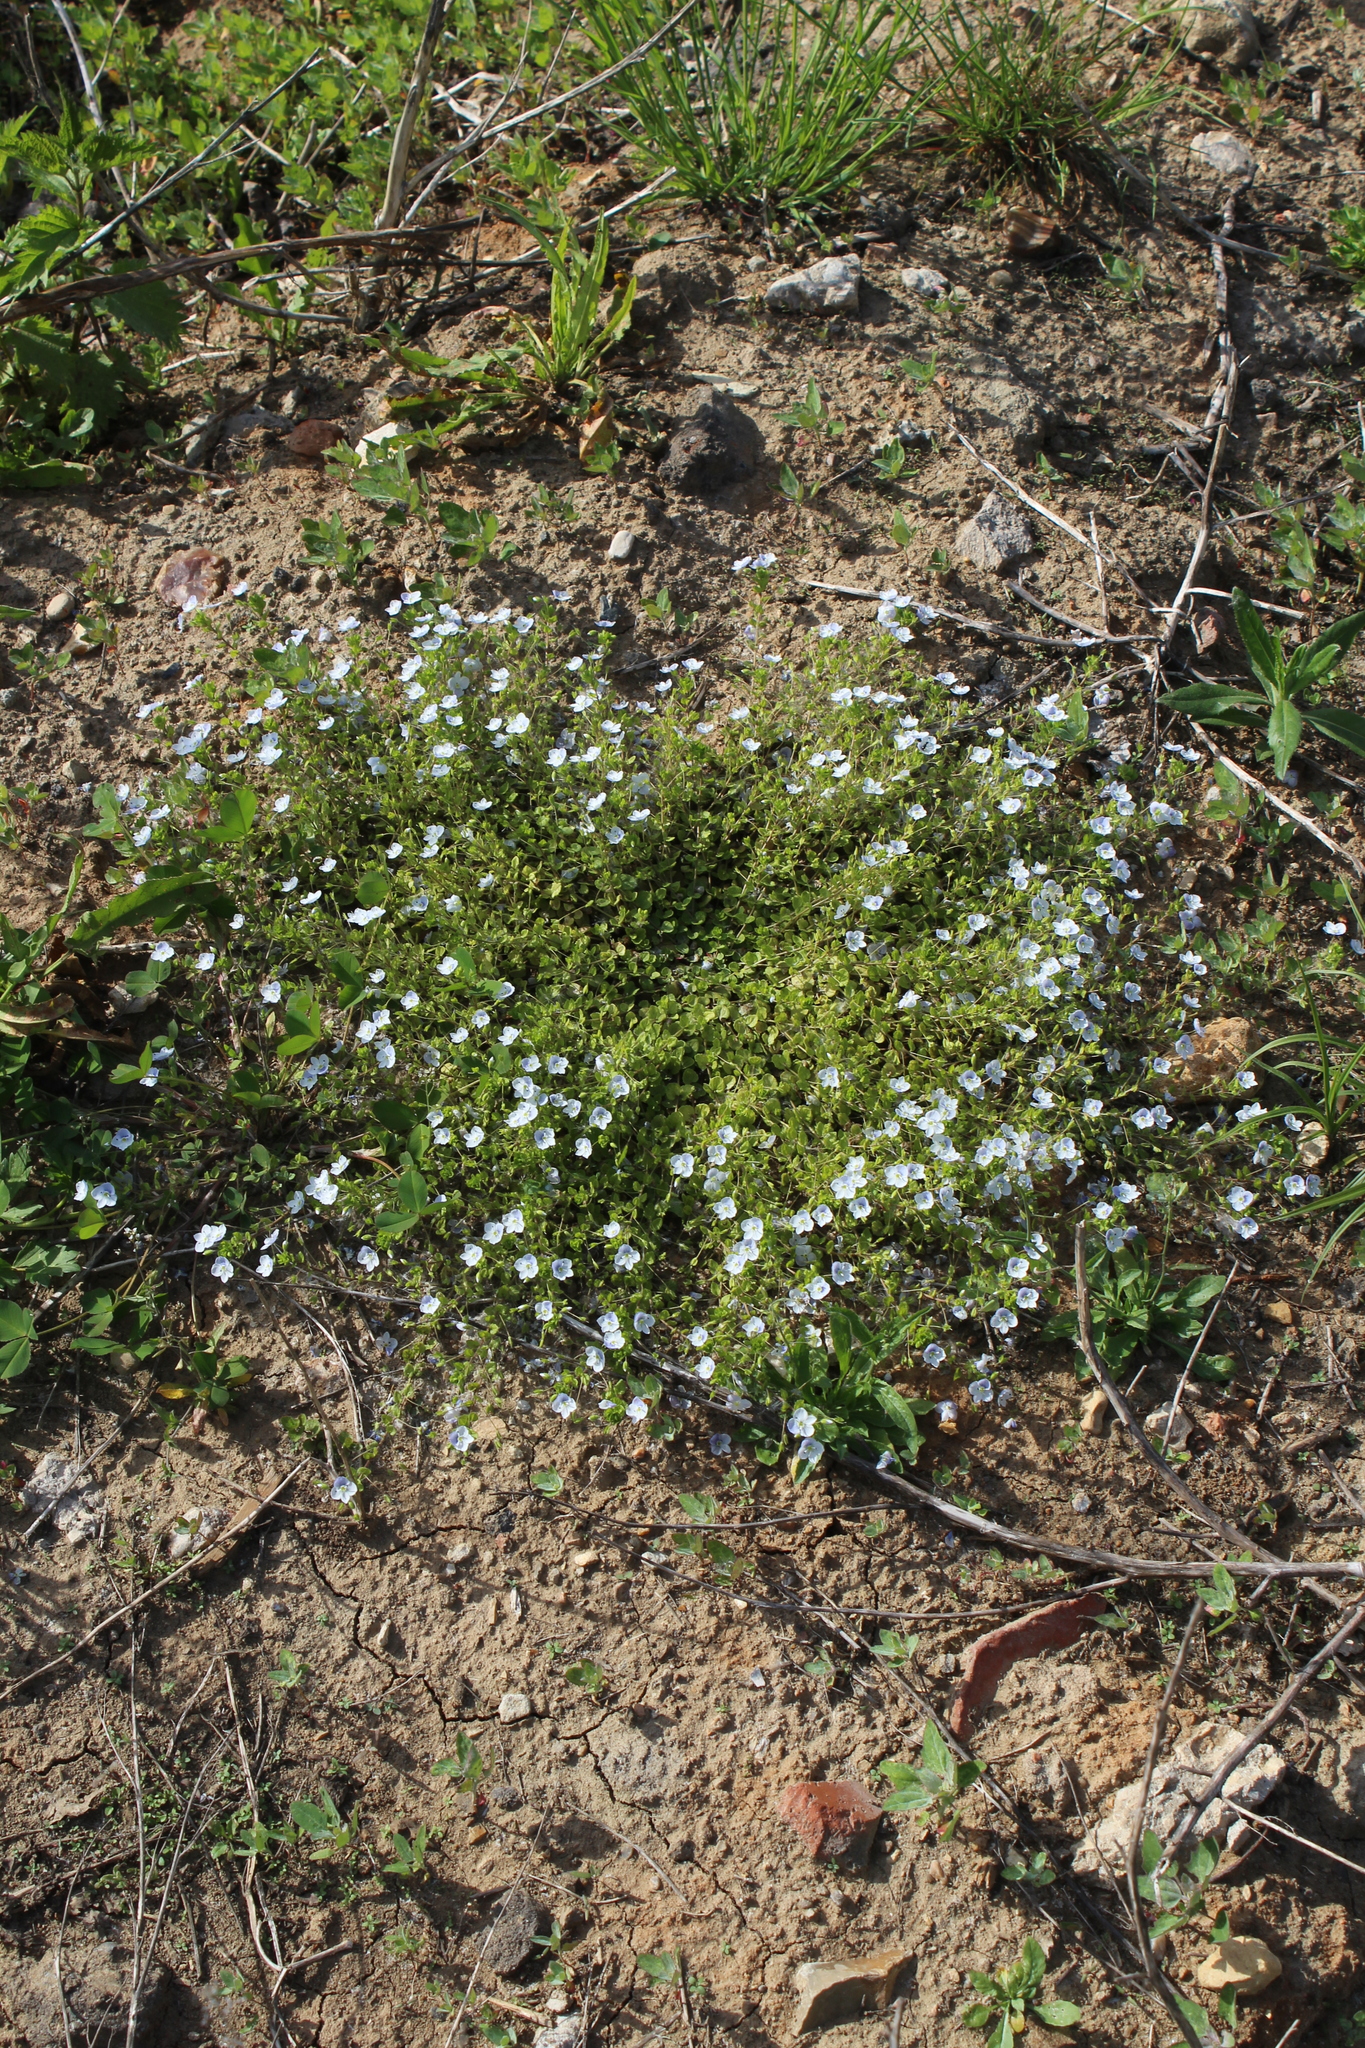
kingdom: Plantae
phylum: Tracheophyta
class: Magnoliopsida
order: Lamiales
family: Plantaginaceae
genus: Veronica
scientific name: Veronica filiformis
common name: Slender speedwell
